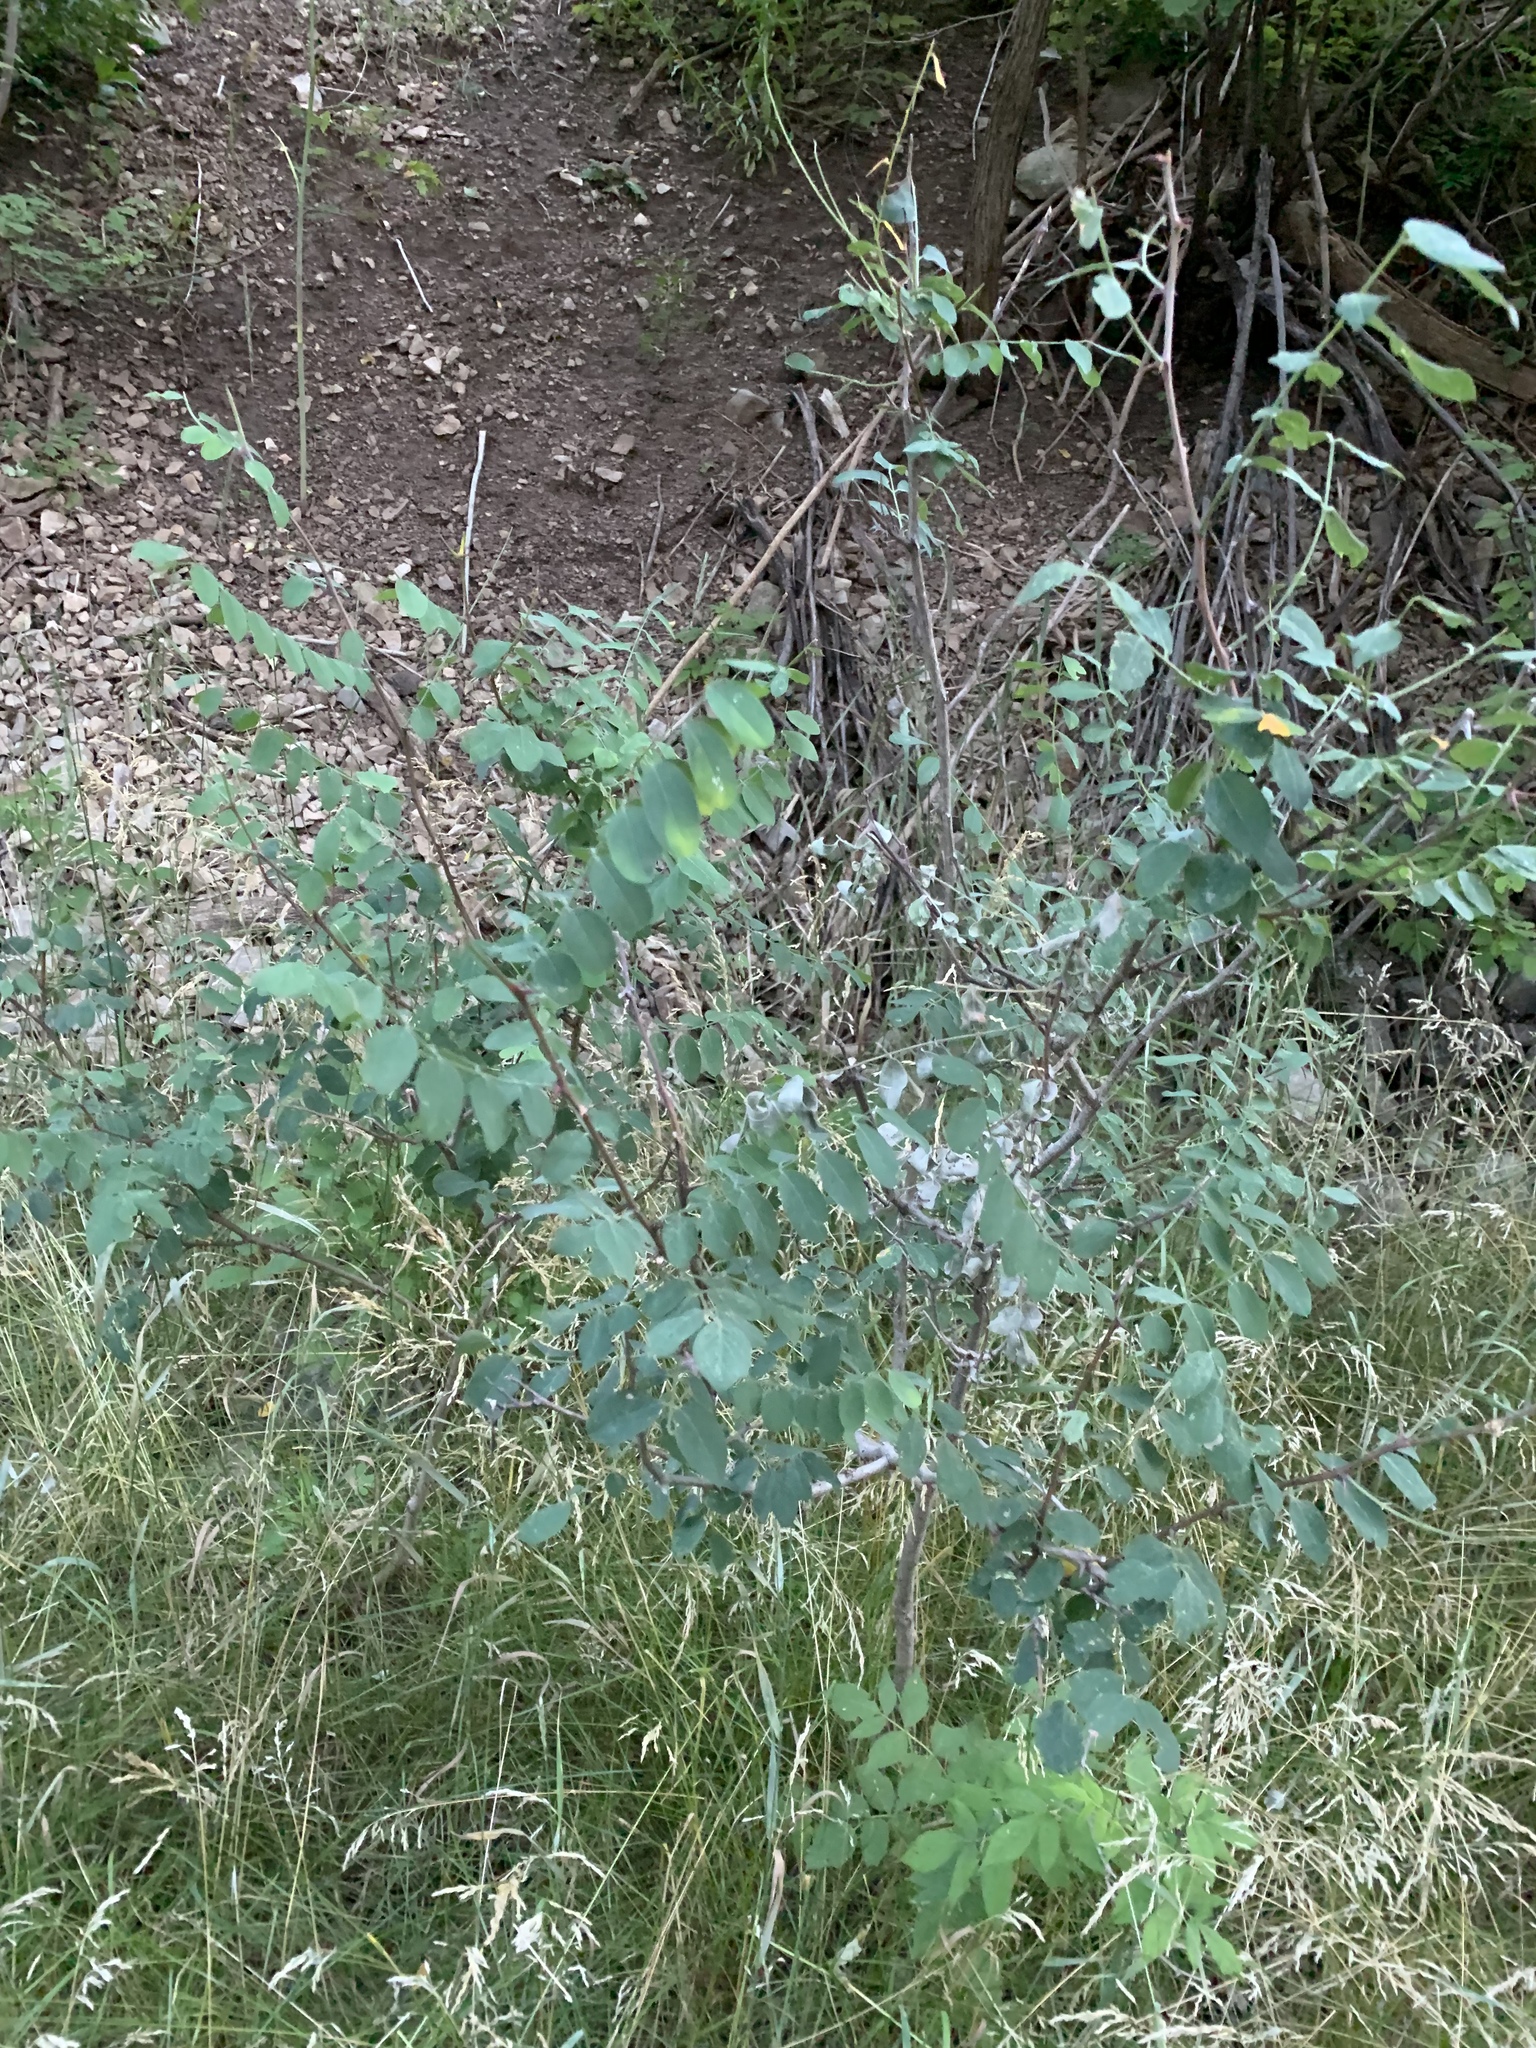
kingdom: Plantae
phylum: Tracheophyta
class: Magnoliopsida
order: Fabales
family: Fabaceae
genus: Robinia
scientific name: Robinia neomexicana
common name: New mexico locust
